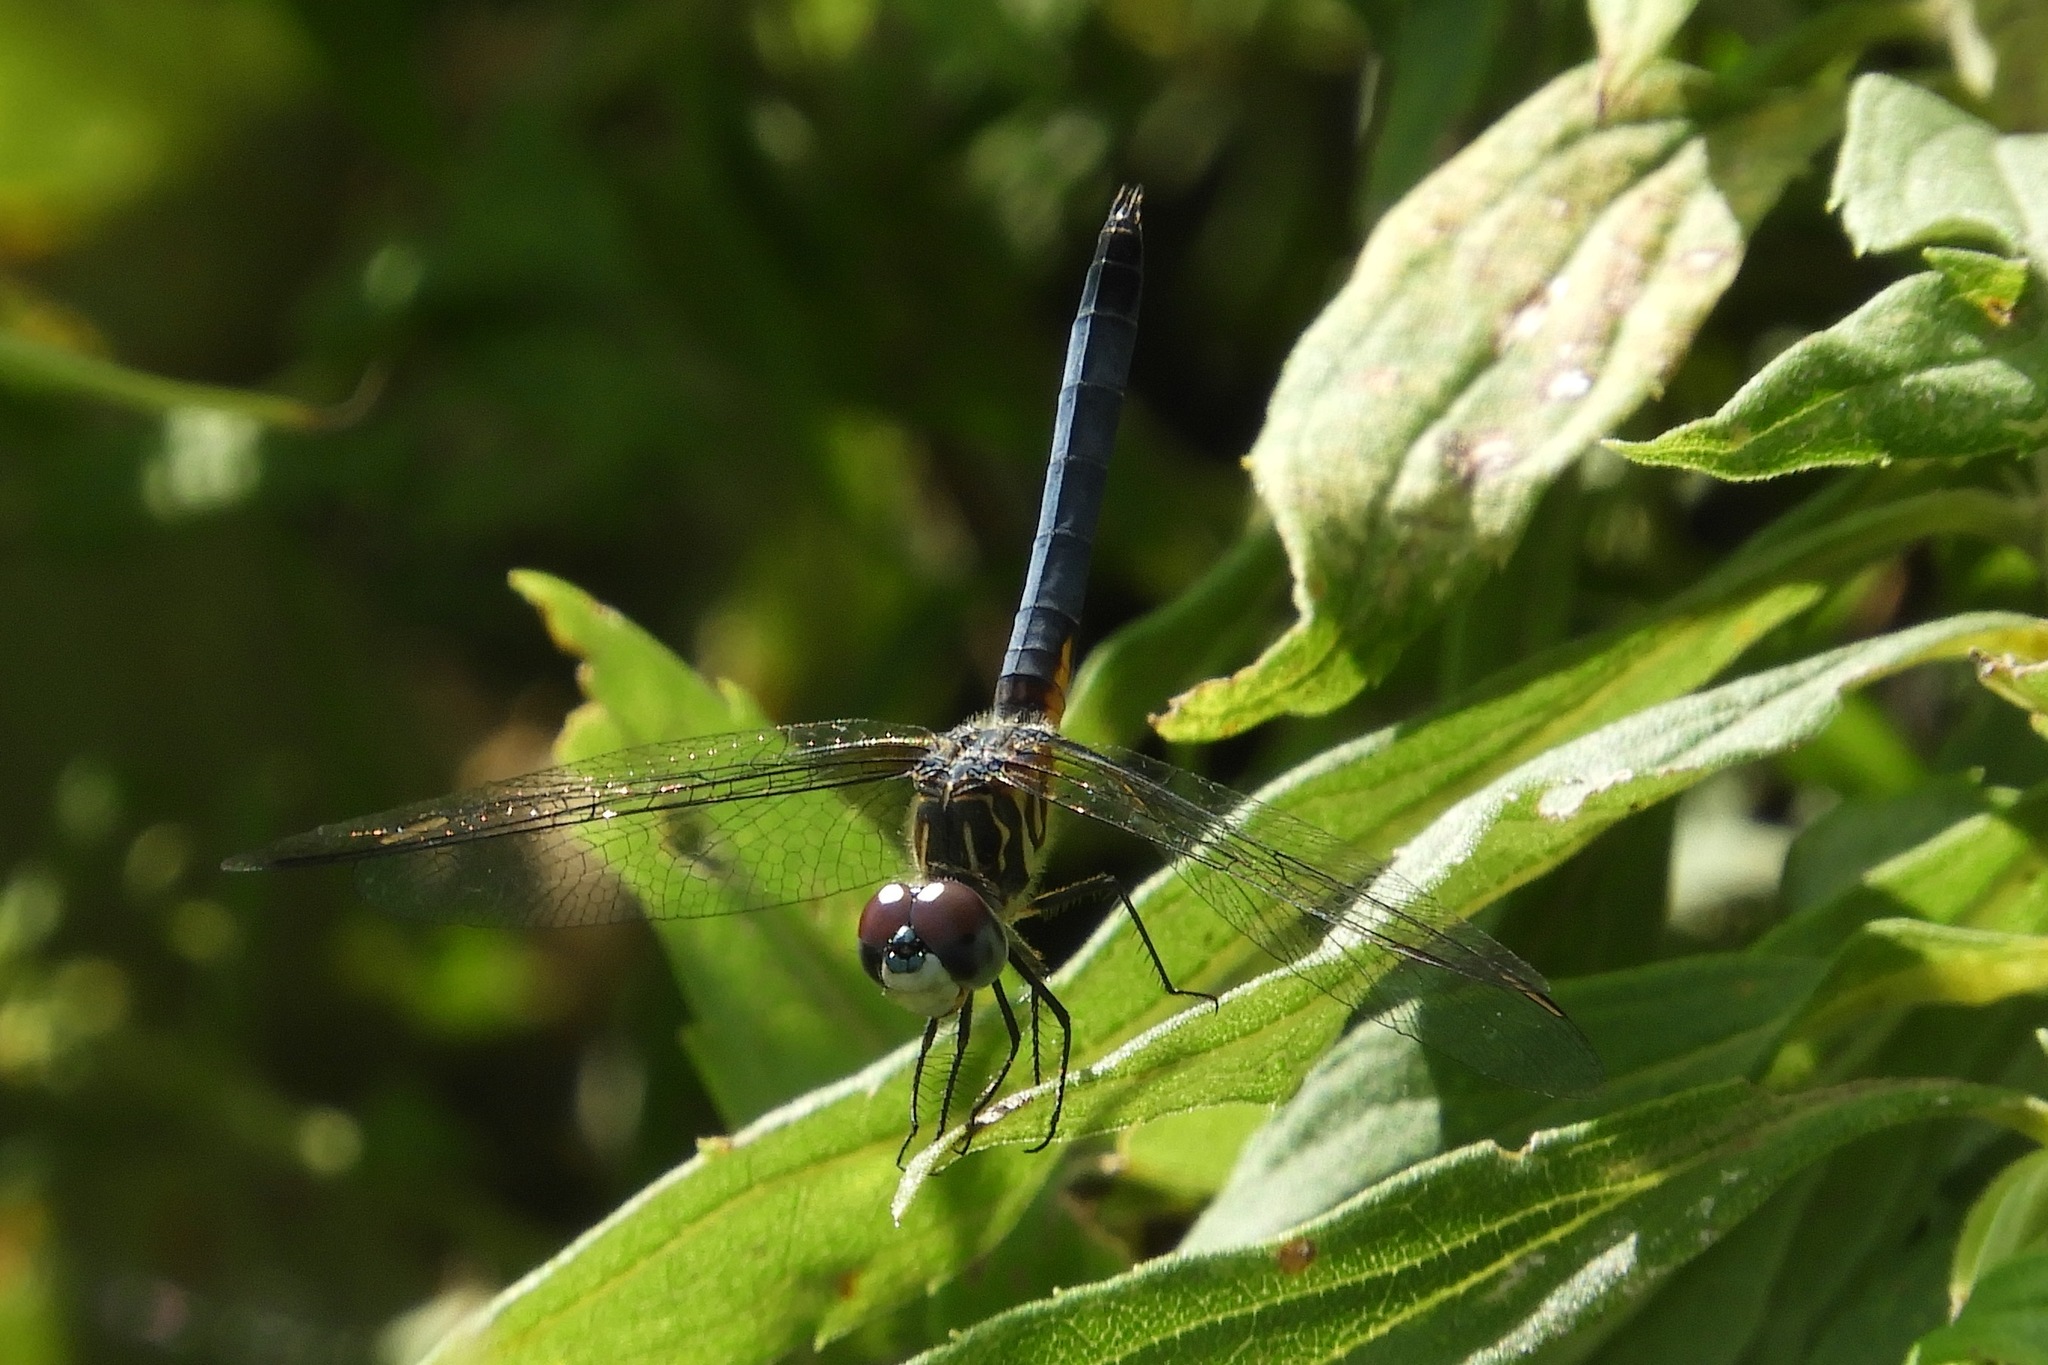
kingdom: Animalia
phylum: Arthropoda
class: Insecta
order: Odonata
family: Libellulidae
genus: Pachydiplax
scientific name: Pachydiplax longipennis
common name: Blue dasher
